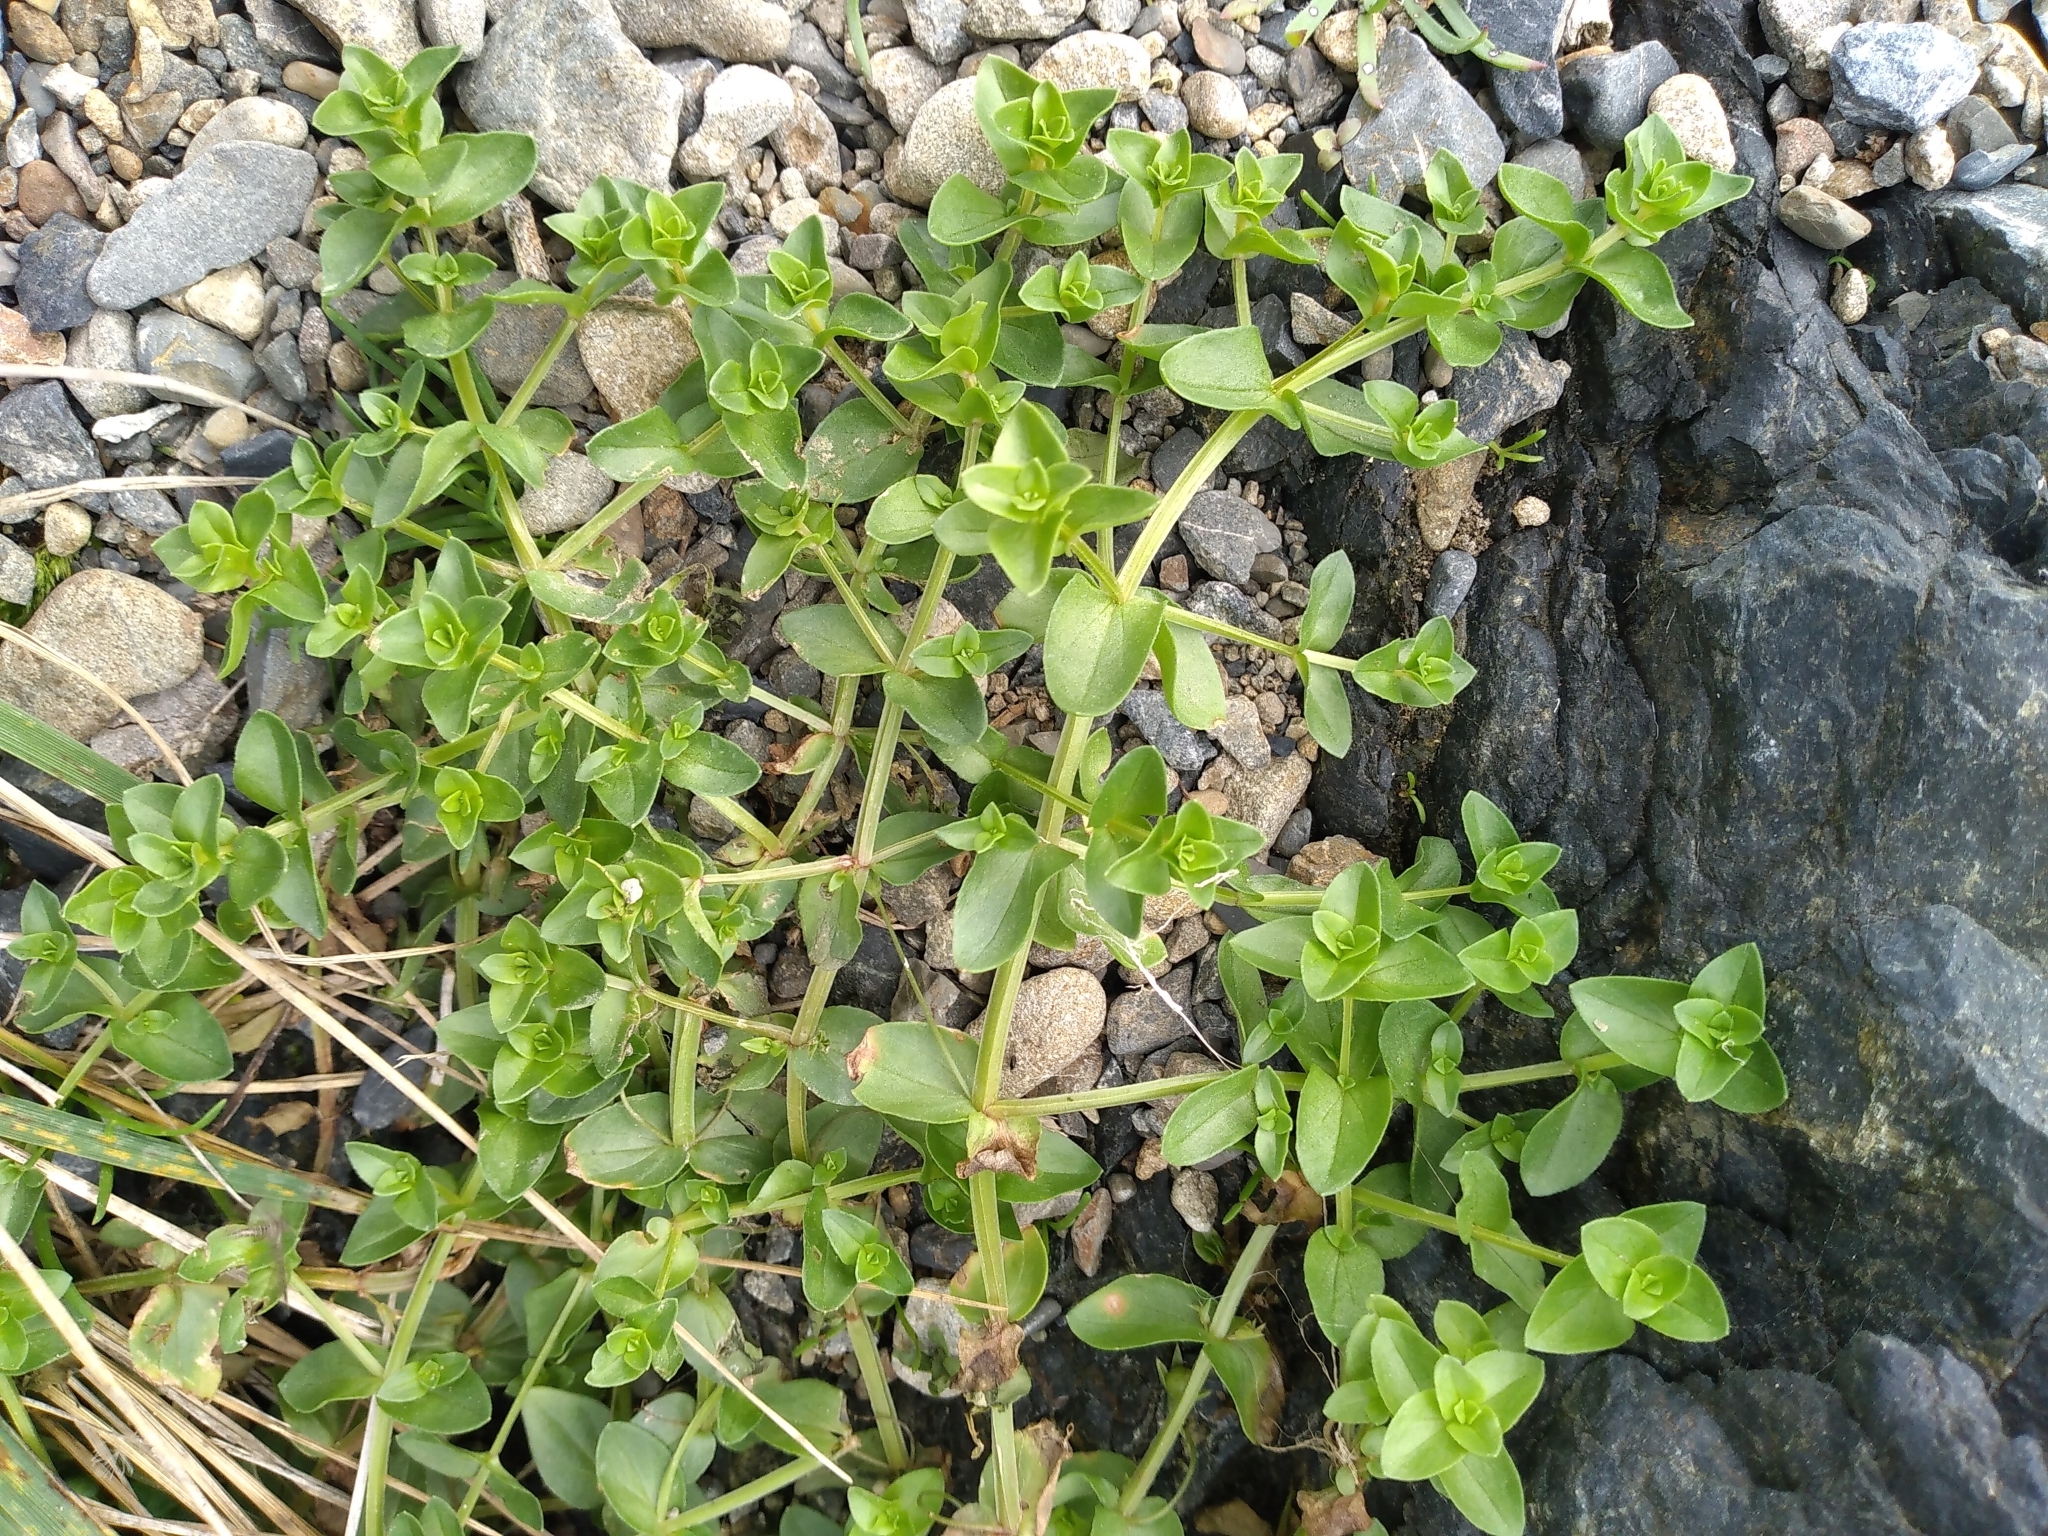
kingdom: Plantae
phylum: Tracheophyta
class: Magnoliopsida
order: Ericales
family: Primulaceae
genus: Lysimachia
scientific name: Lysimachia arvensis
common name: Scarlet pimpernel
